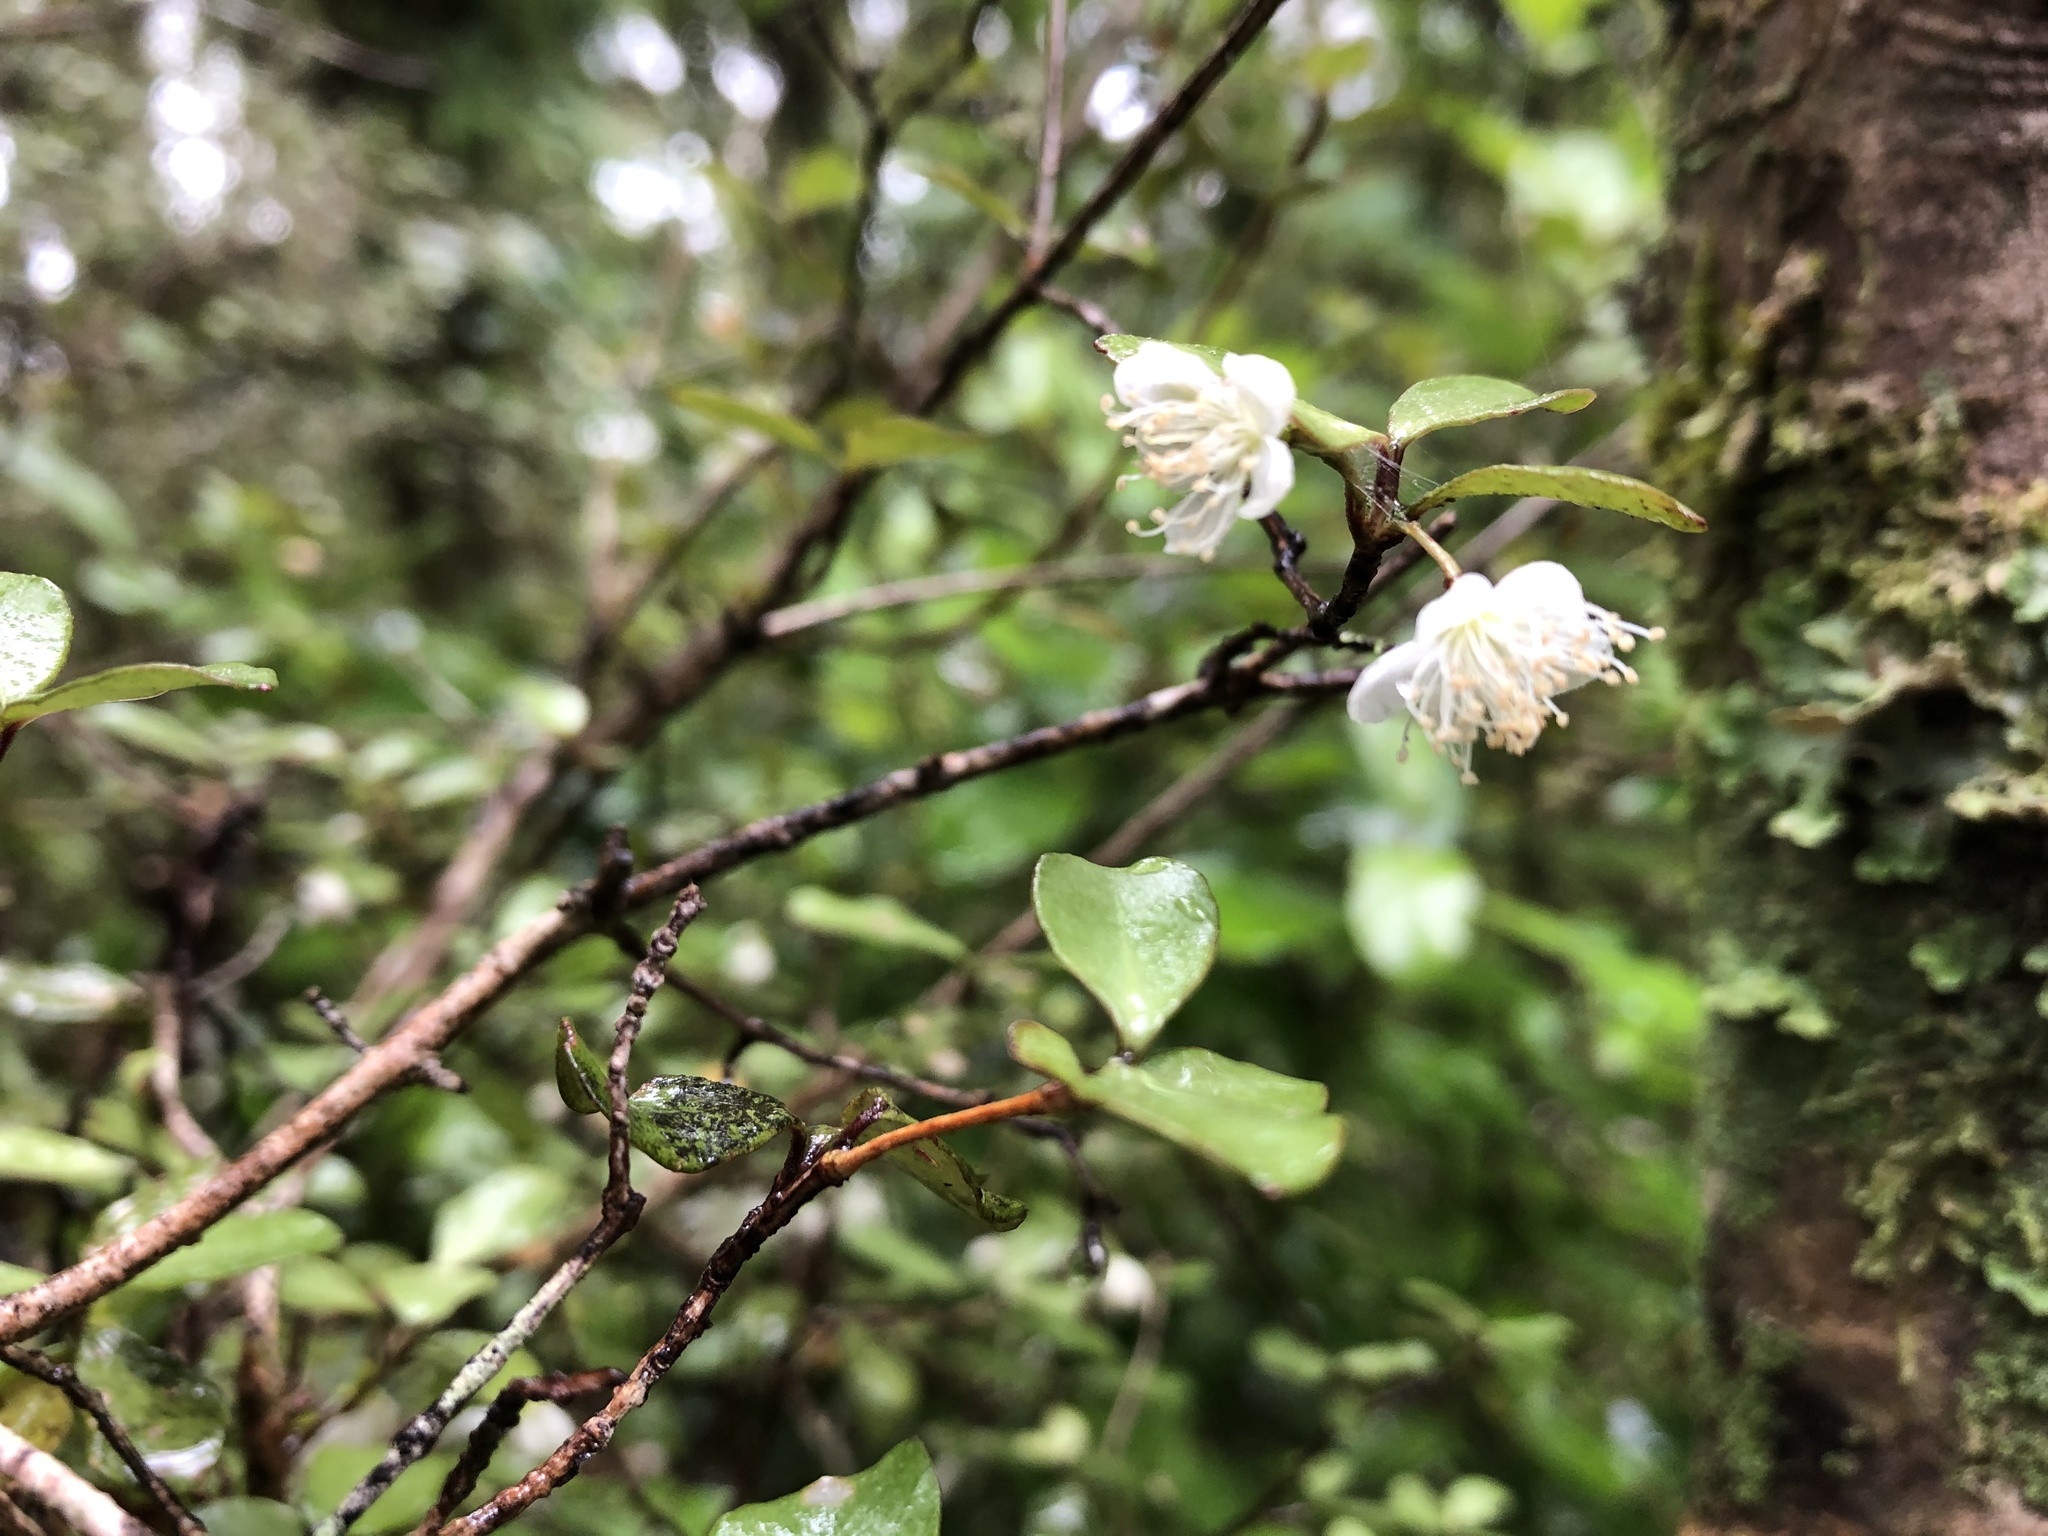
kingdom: Plantae
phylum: Tracheophyta
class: Magnoliopsida
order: Myrtales
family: Myrtaceae
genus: Neomyrtus
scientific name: Neomyrtus pedunculata
